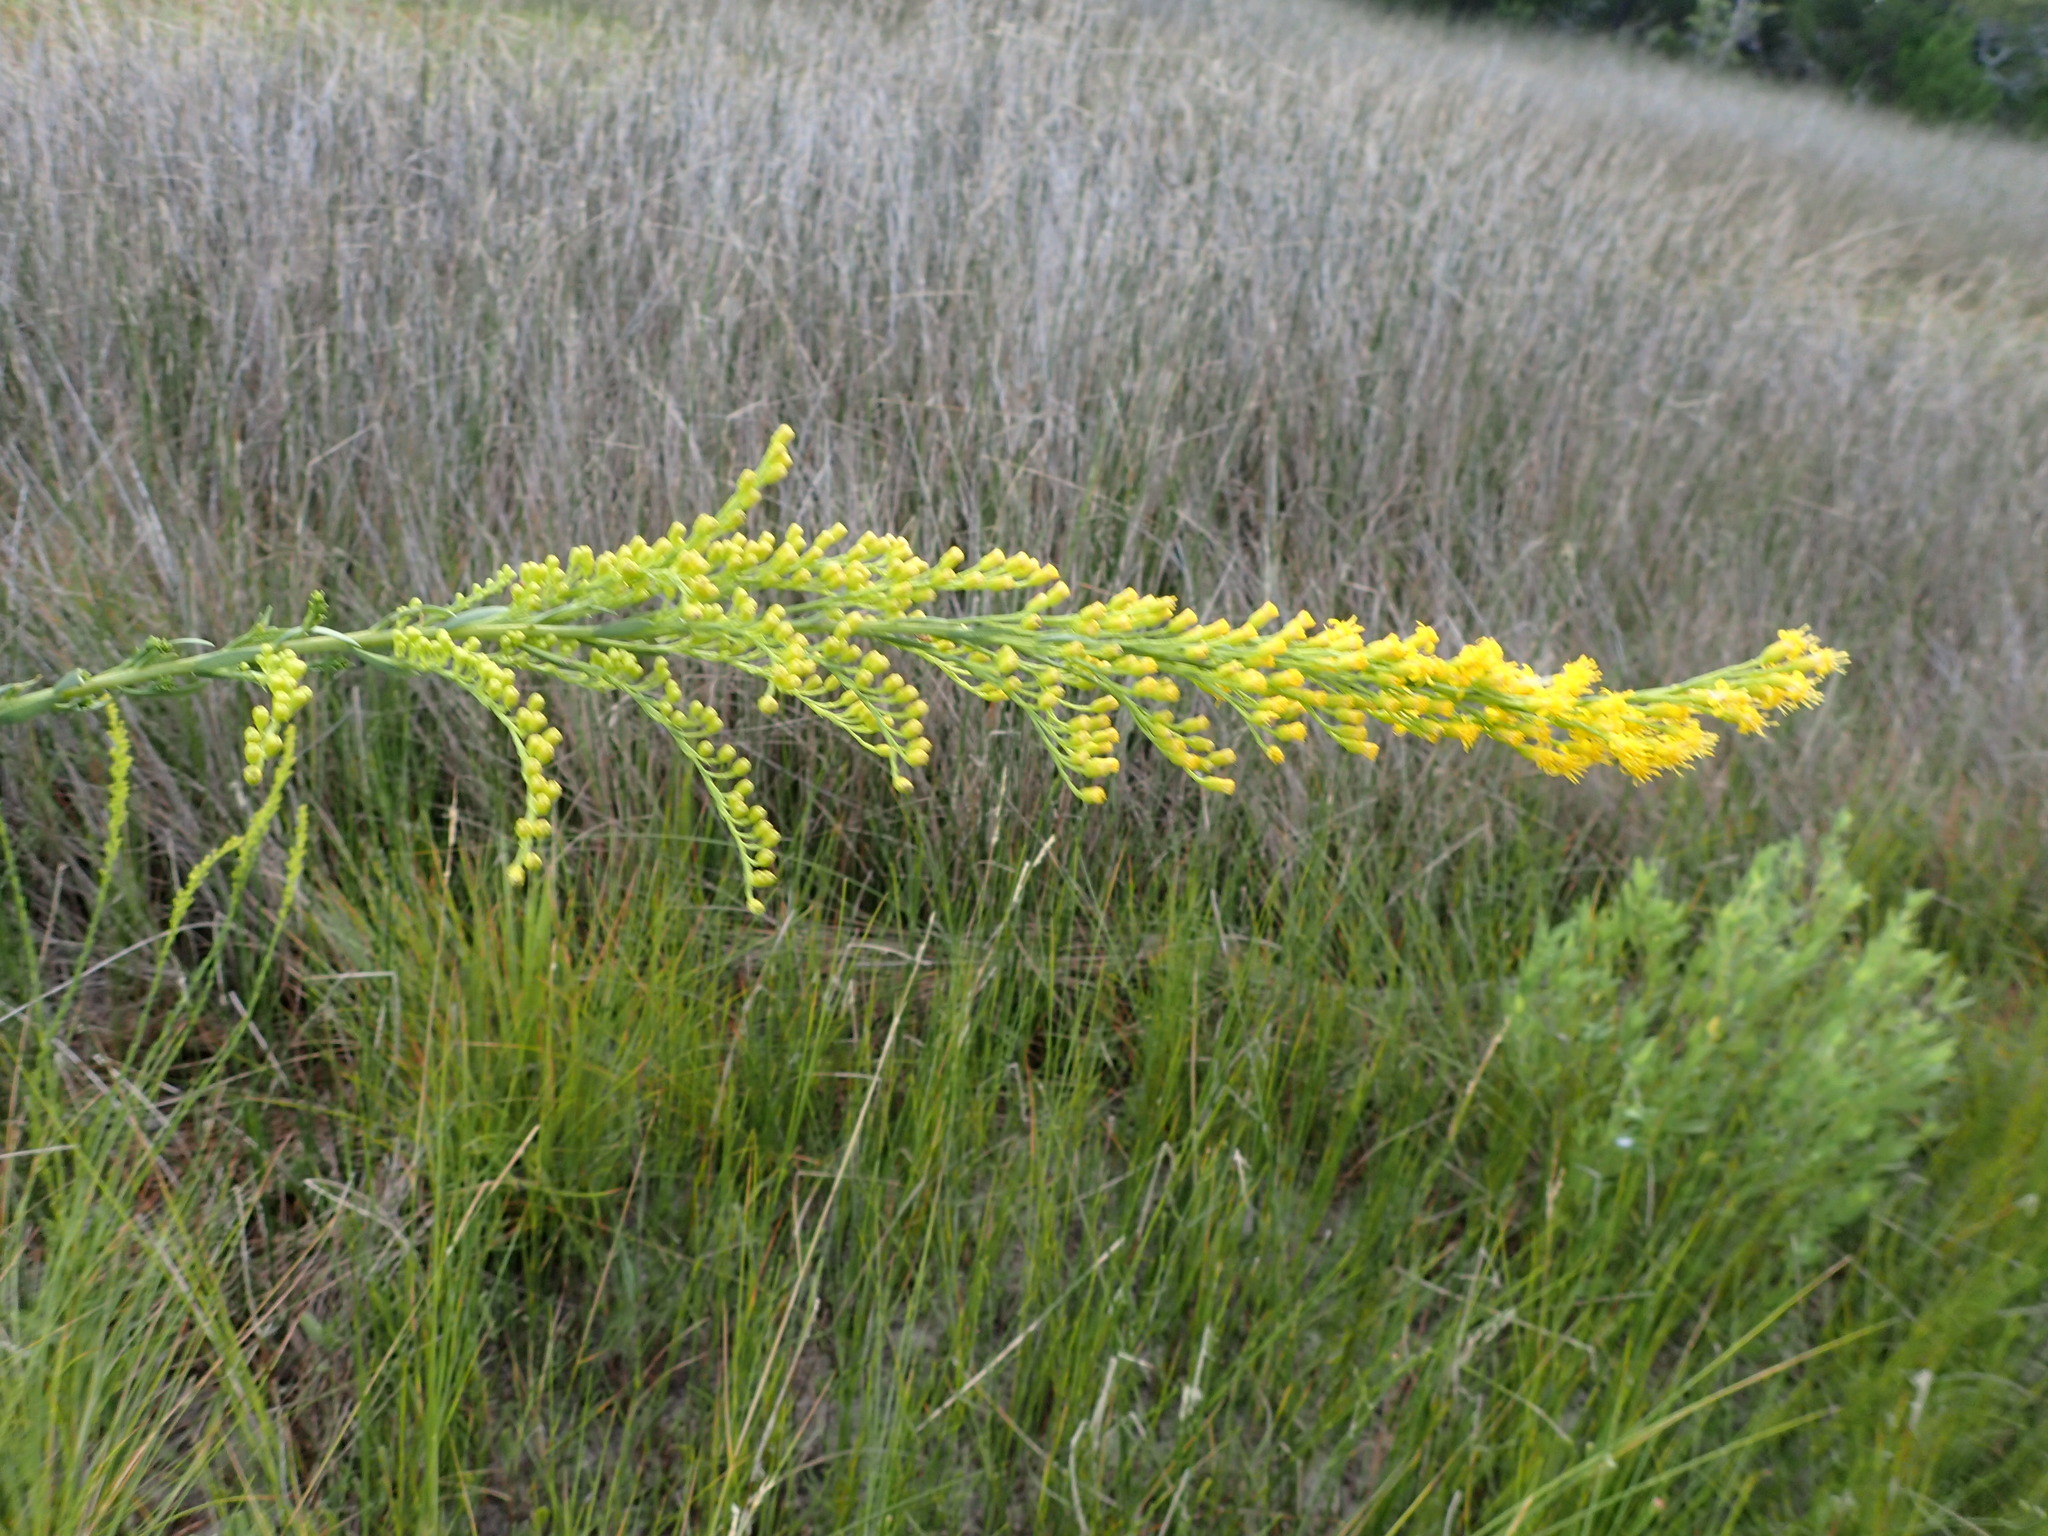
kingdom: Plantae
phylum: Tracheophyta
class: Magnoliopsida
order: Asterales
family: Asteraceae
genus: Solidago
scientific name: Solidago mexicana
